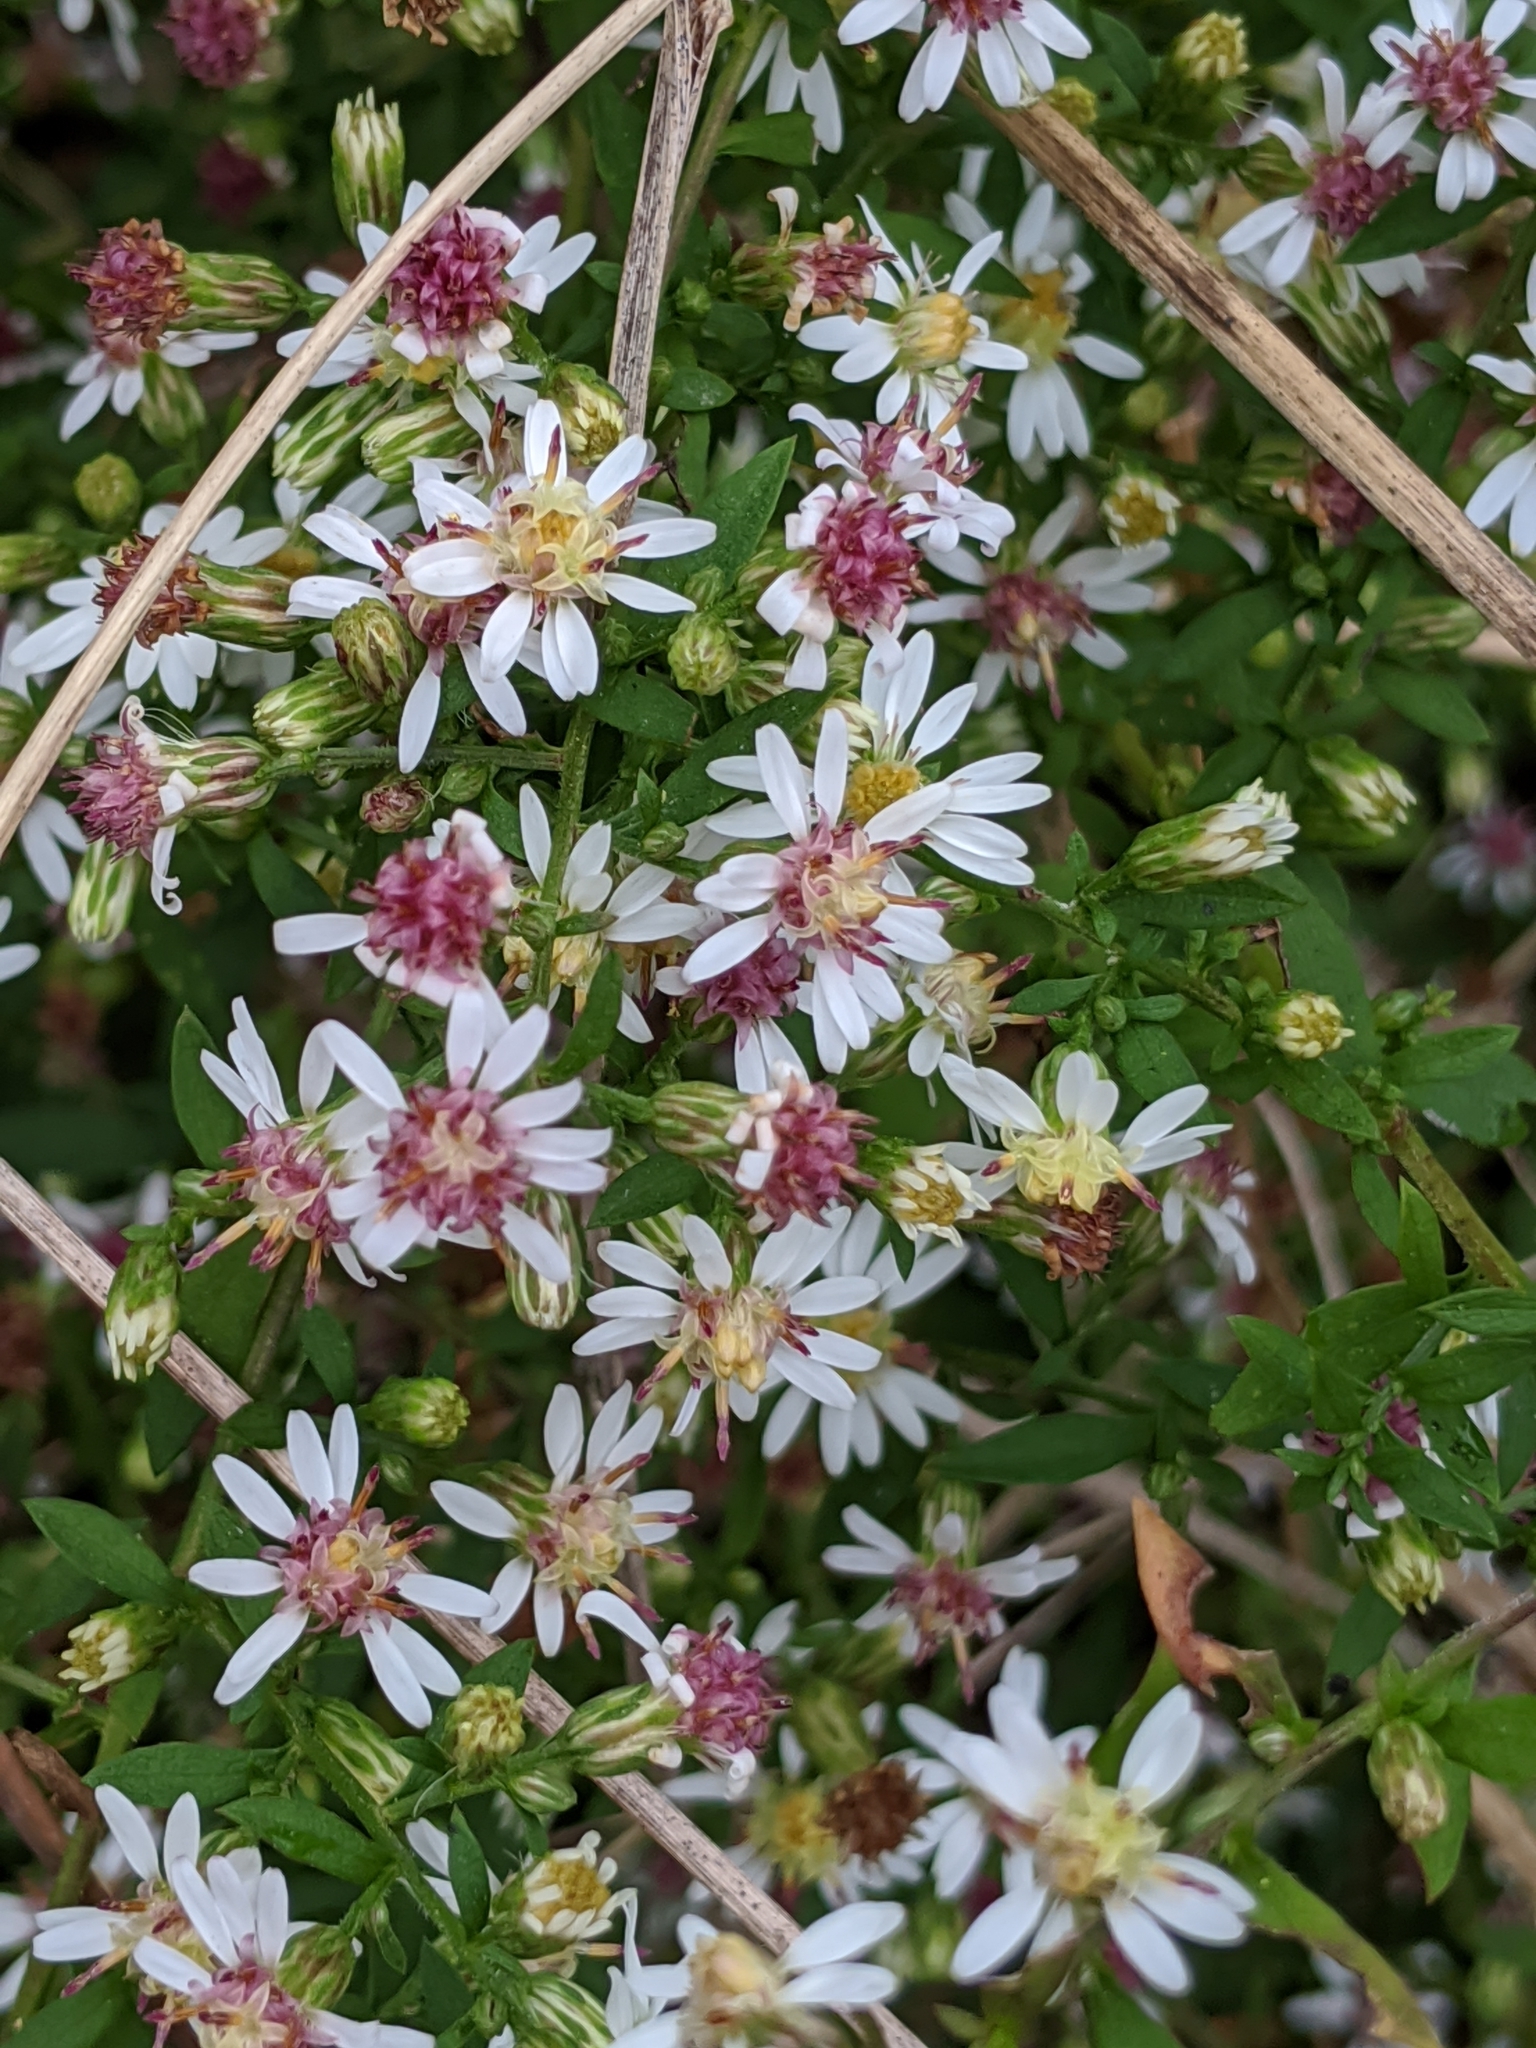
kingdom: Plantae
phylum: Tracheophyta
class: Magnoliopsida
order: Asterales
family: Asteraceae
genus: Symphyotrichum
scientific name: Symphyotrichum lateriflorum
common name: Calico aster
